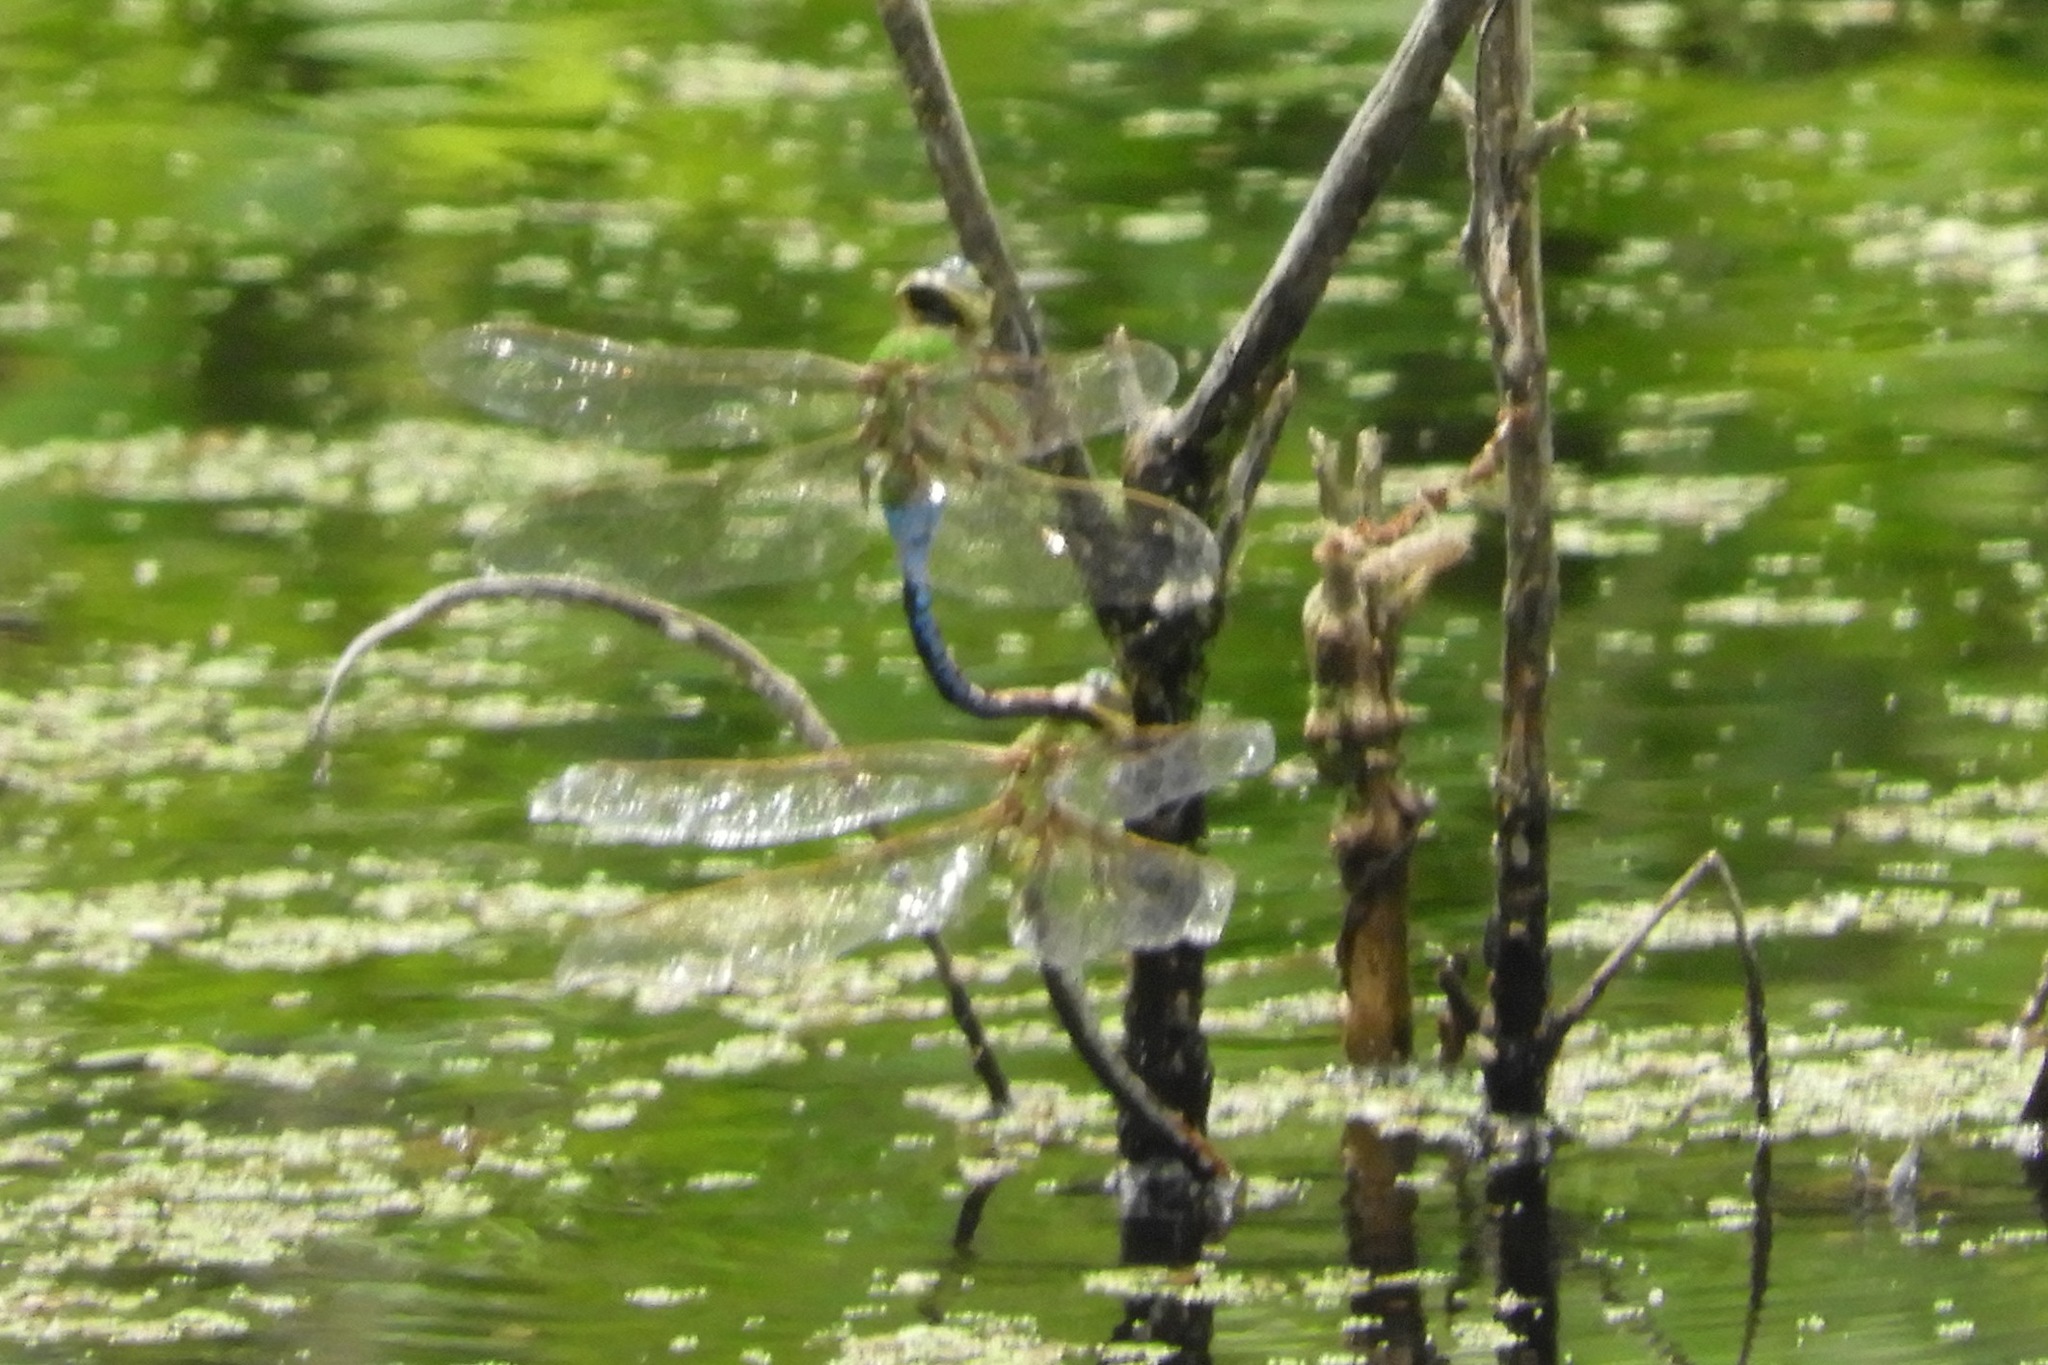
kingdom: Animalia
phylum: Arthropoda
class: Insecta
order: Odonata
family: Aeshnidae
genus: Anax
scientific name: Anax junius
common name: Common green darner
